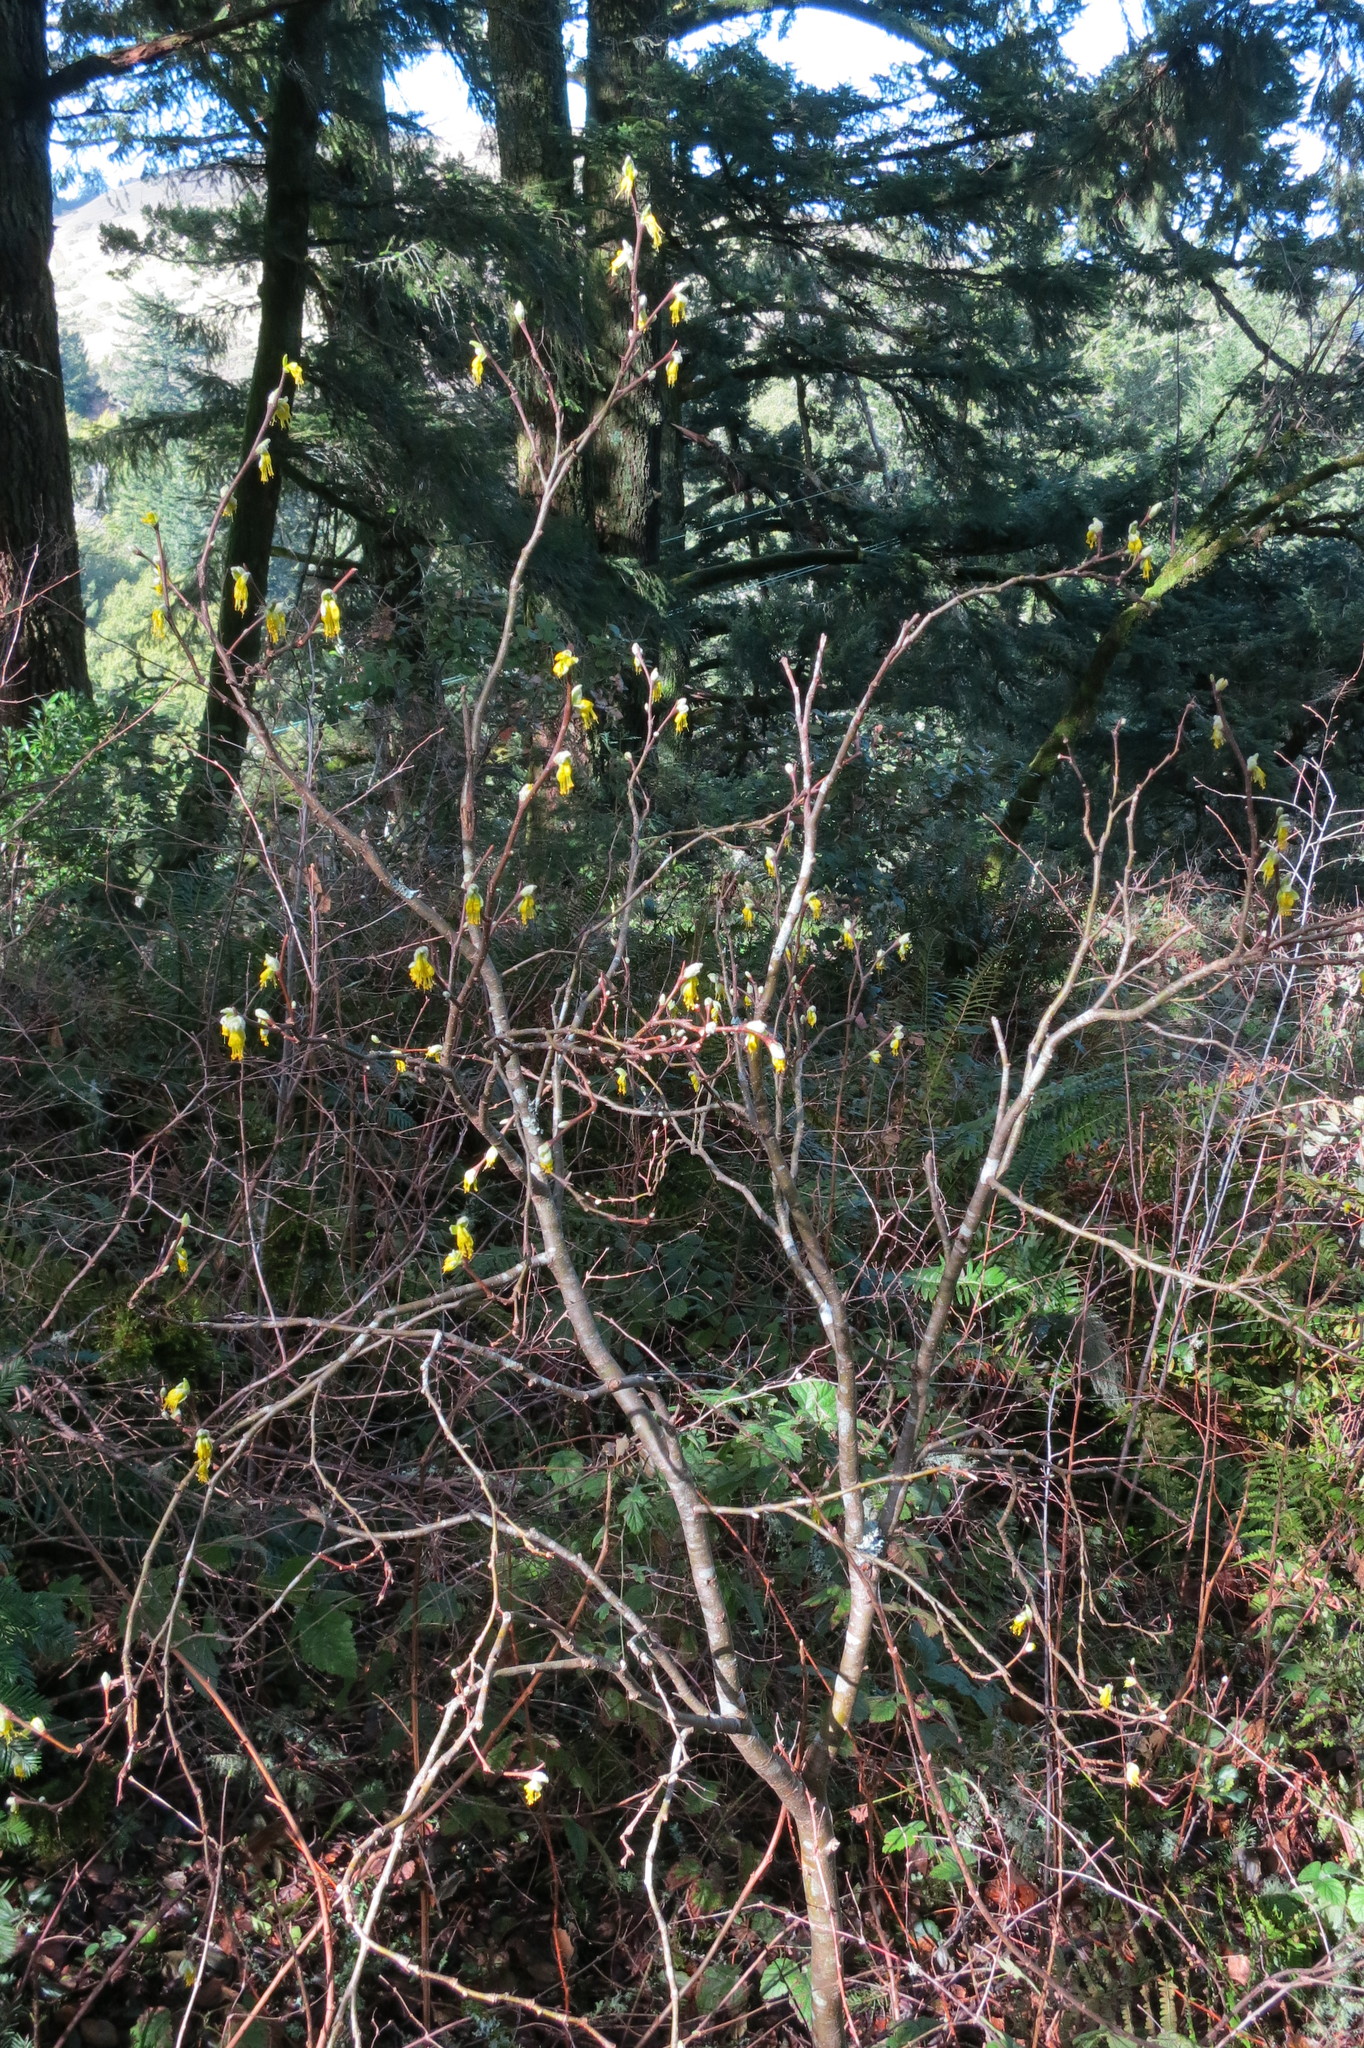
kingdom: Plantae
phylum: Tracheophyta
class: Magnoliopsida
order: Malvales
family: Thymelaeaceae
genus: Dirca
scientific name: Dirca occidentalis
